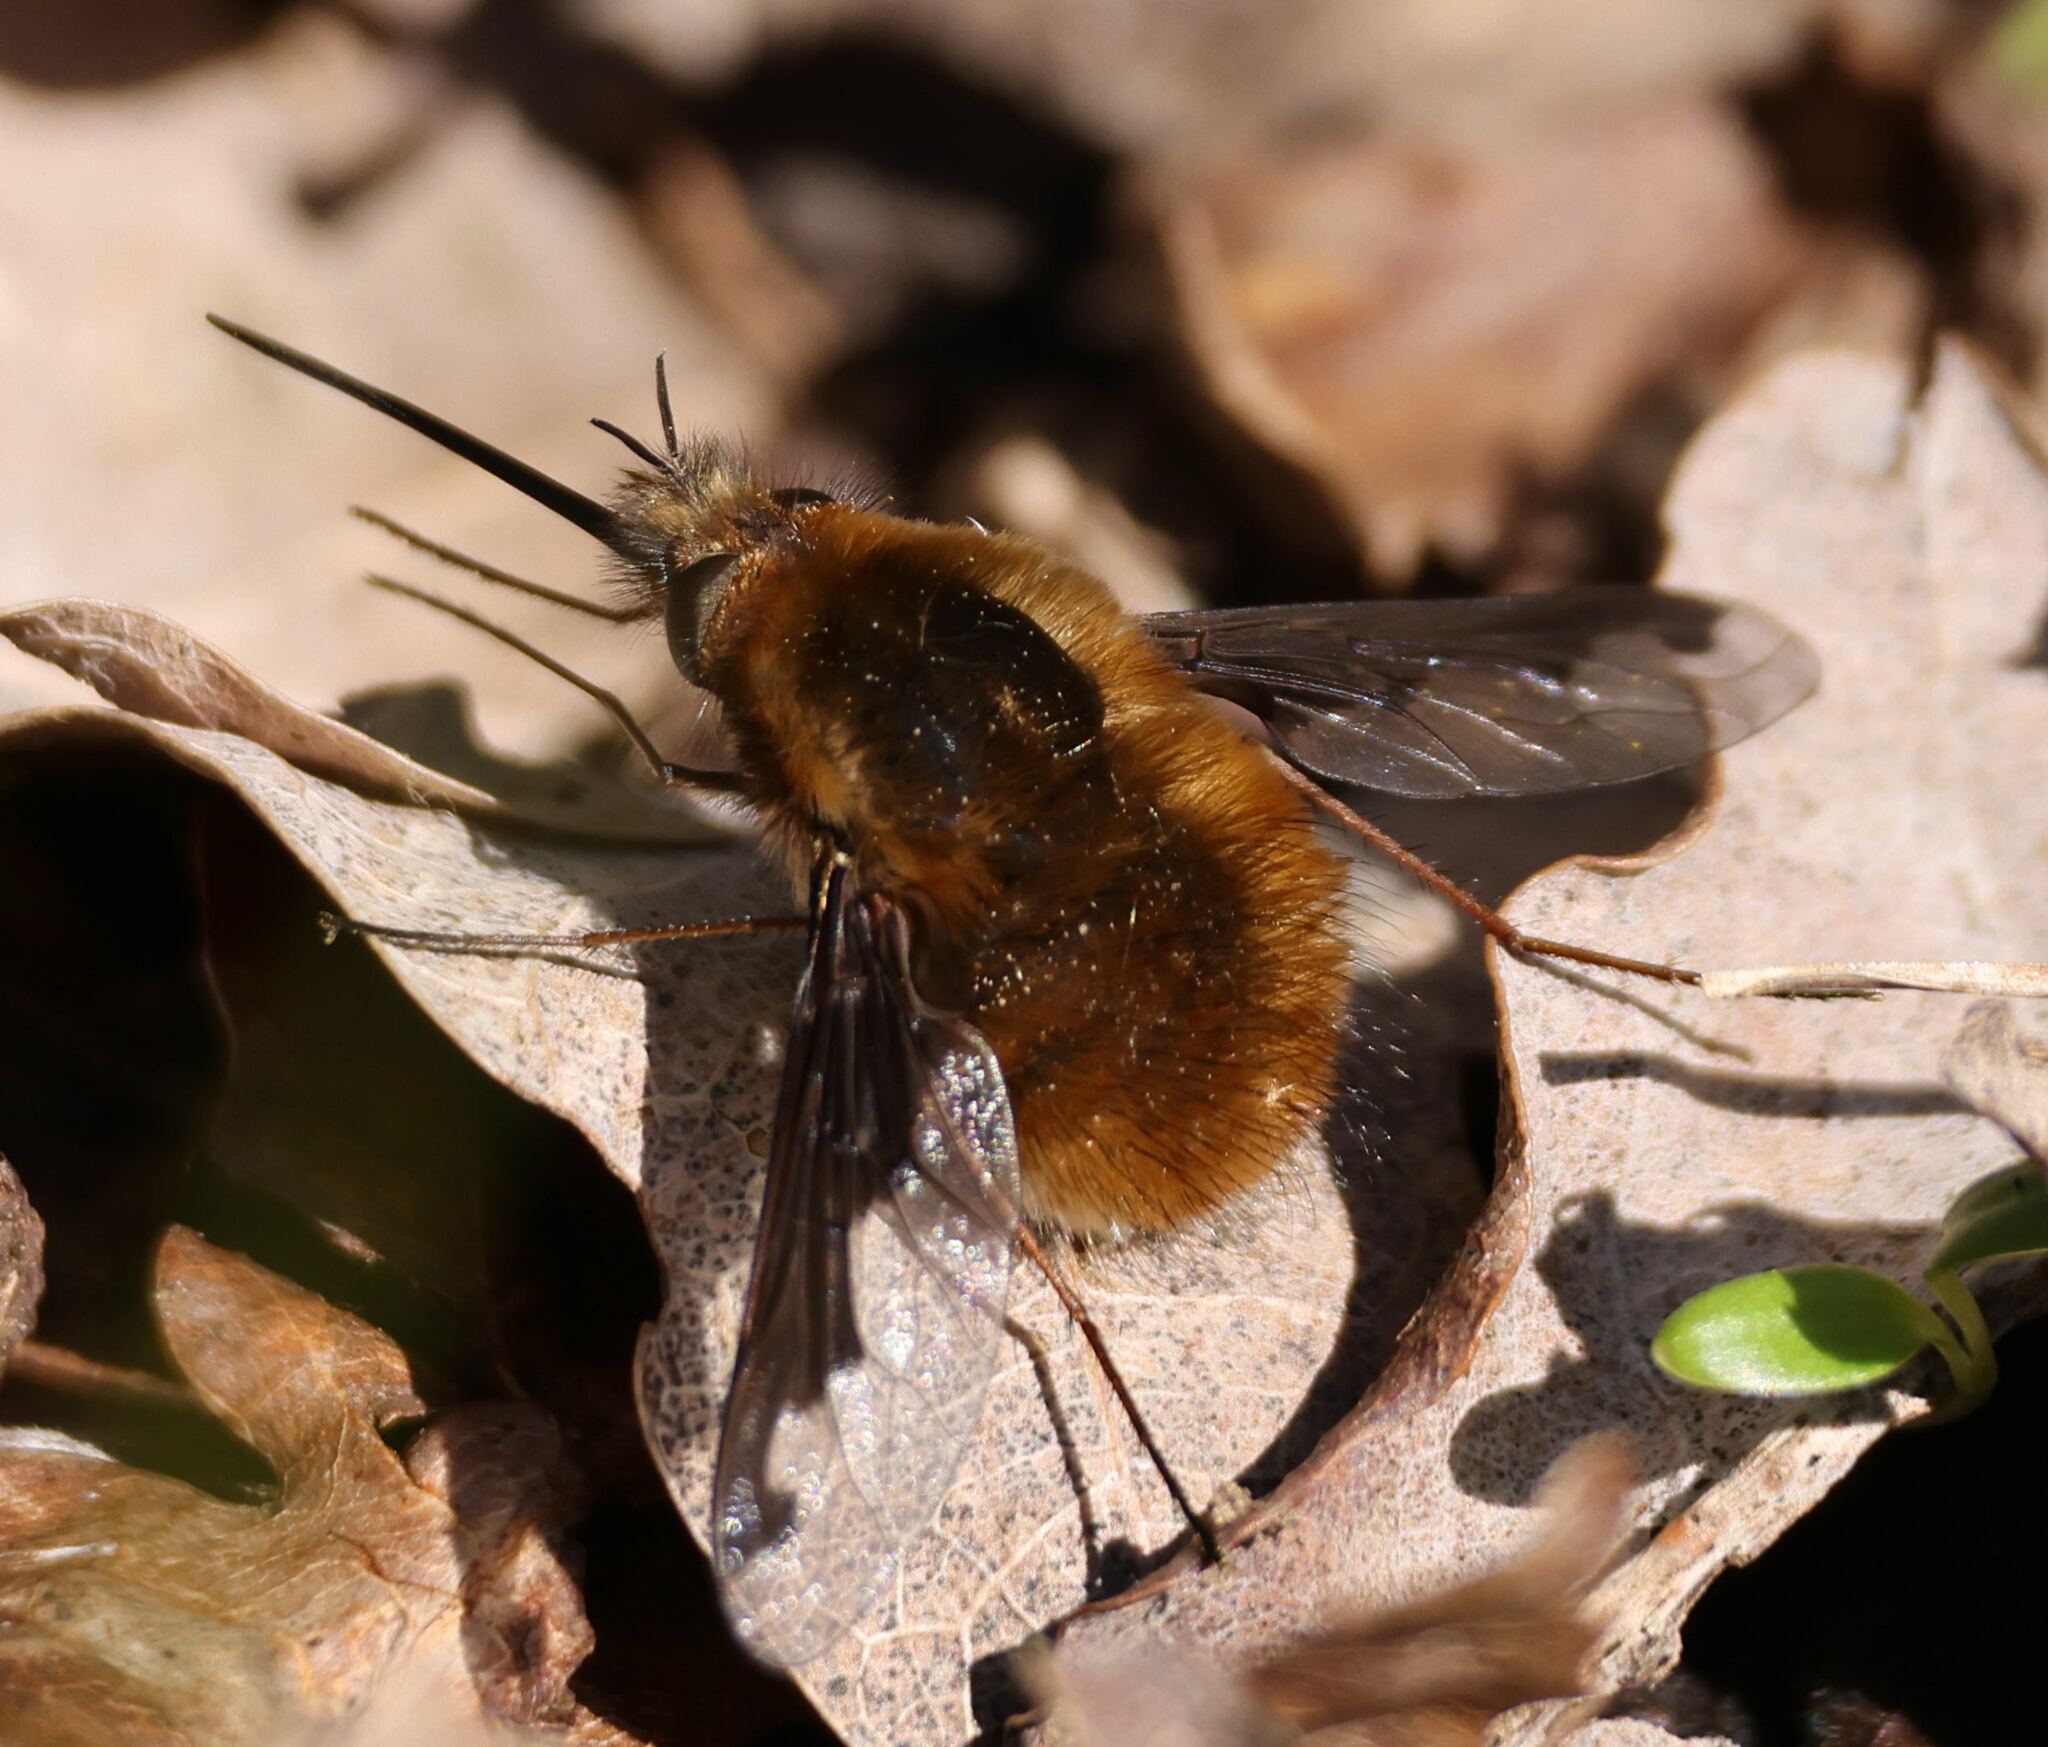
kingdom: Animalia
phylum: Arthropoda
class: Insecta
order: Diptera
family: Bombyliidae
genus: Bombylius
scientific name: Bombylius major
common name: Bee fly
